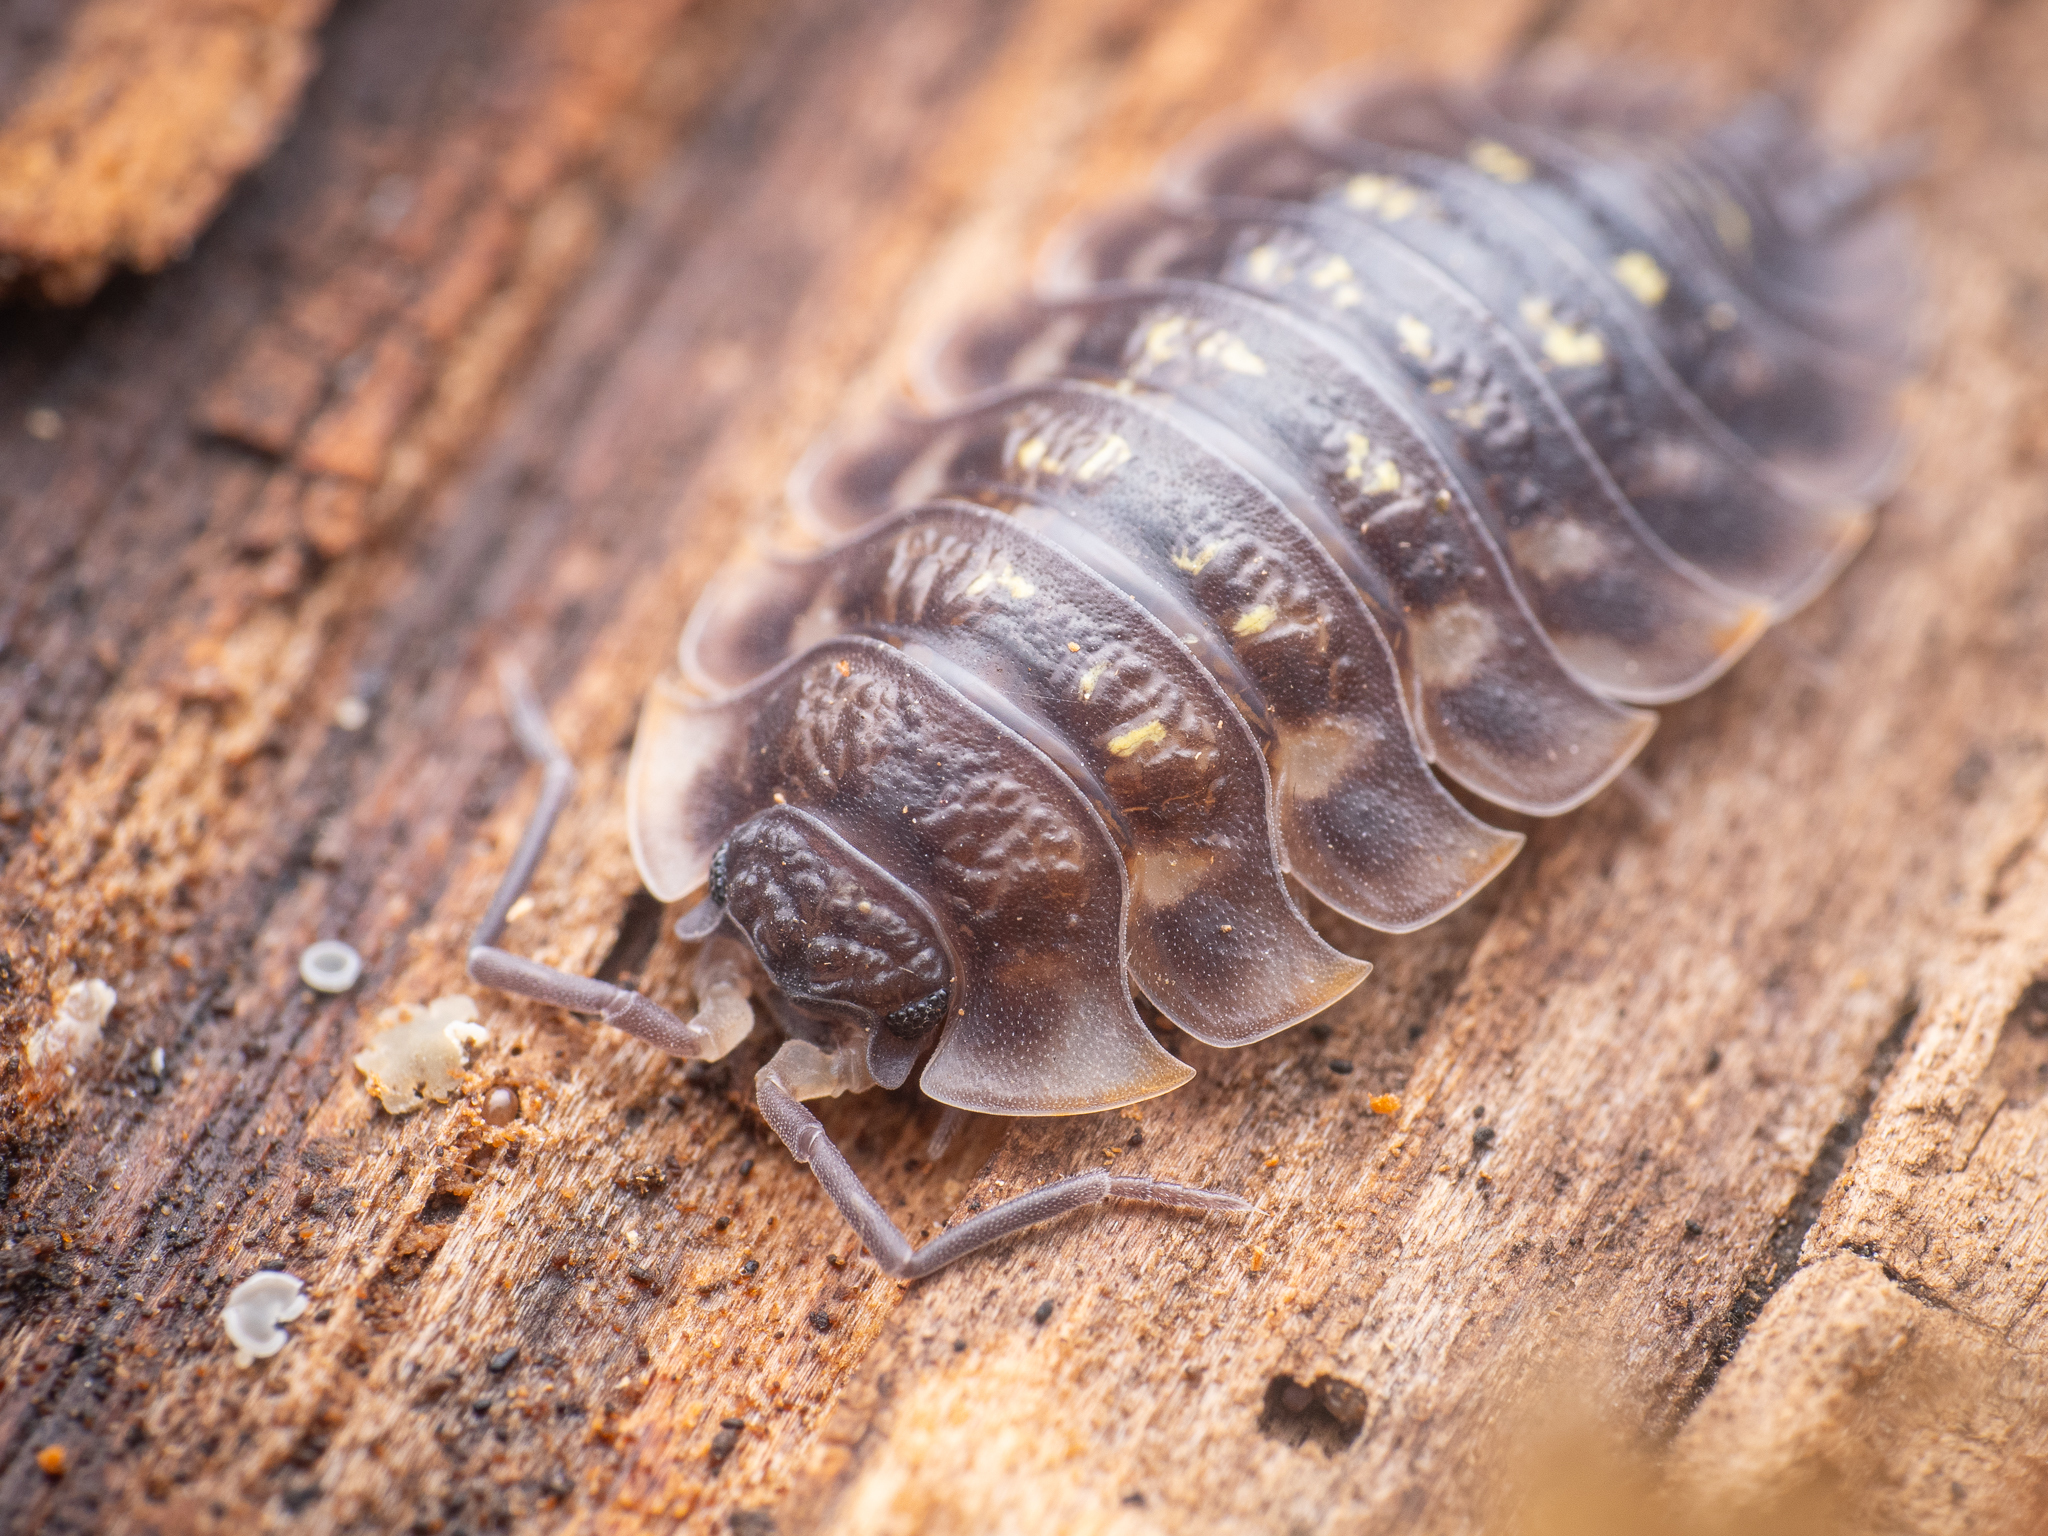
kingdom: Animalia
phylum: Arthropoda
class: Malacostraca
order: Isopoda
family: Oniscidae
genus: Oniscus
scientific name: Oniscus asellus
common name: Common shiny woodlouse
